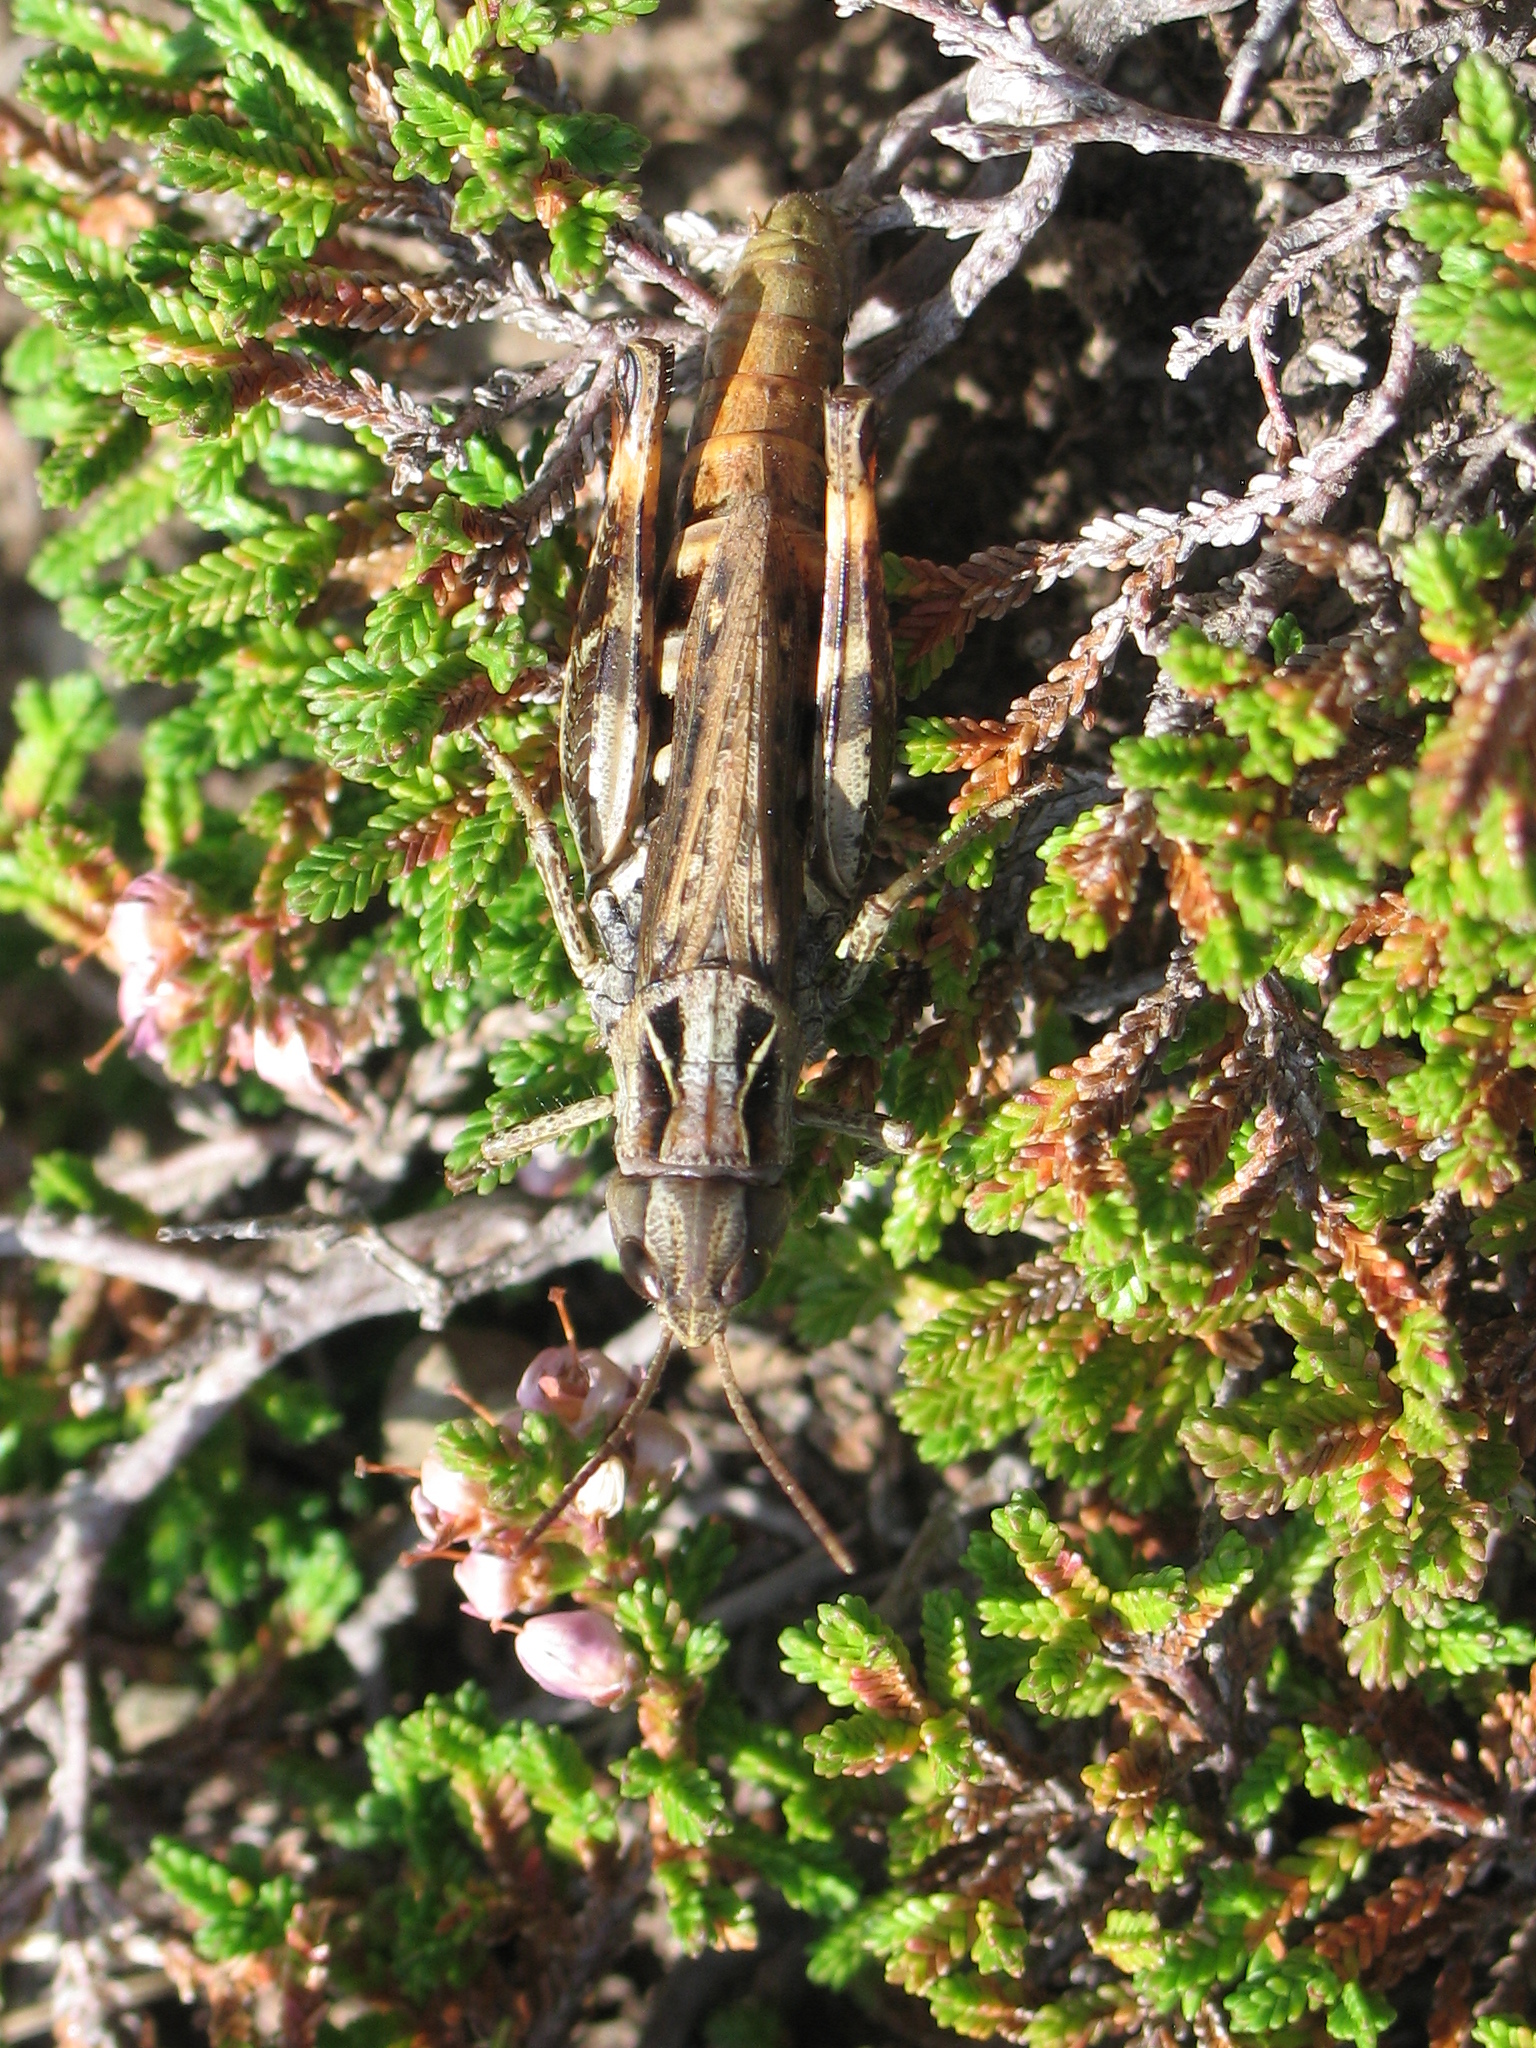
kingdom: Animalia
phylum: Arthropoda
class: Insecta
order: Orthoptera
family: Acrididae
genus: Chorthippus
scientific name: Chorthippus saulcyi
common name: French grasshopper
